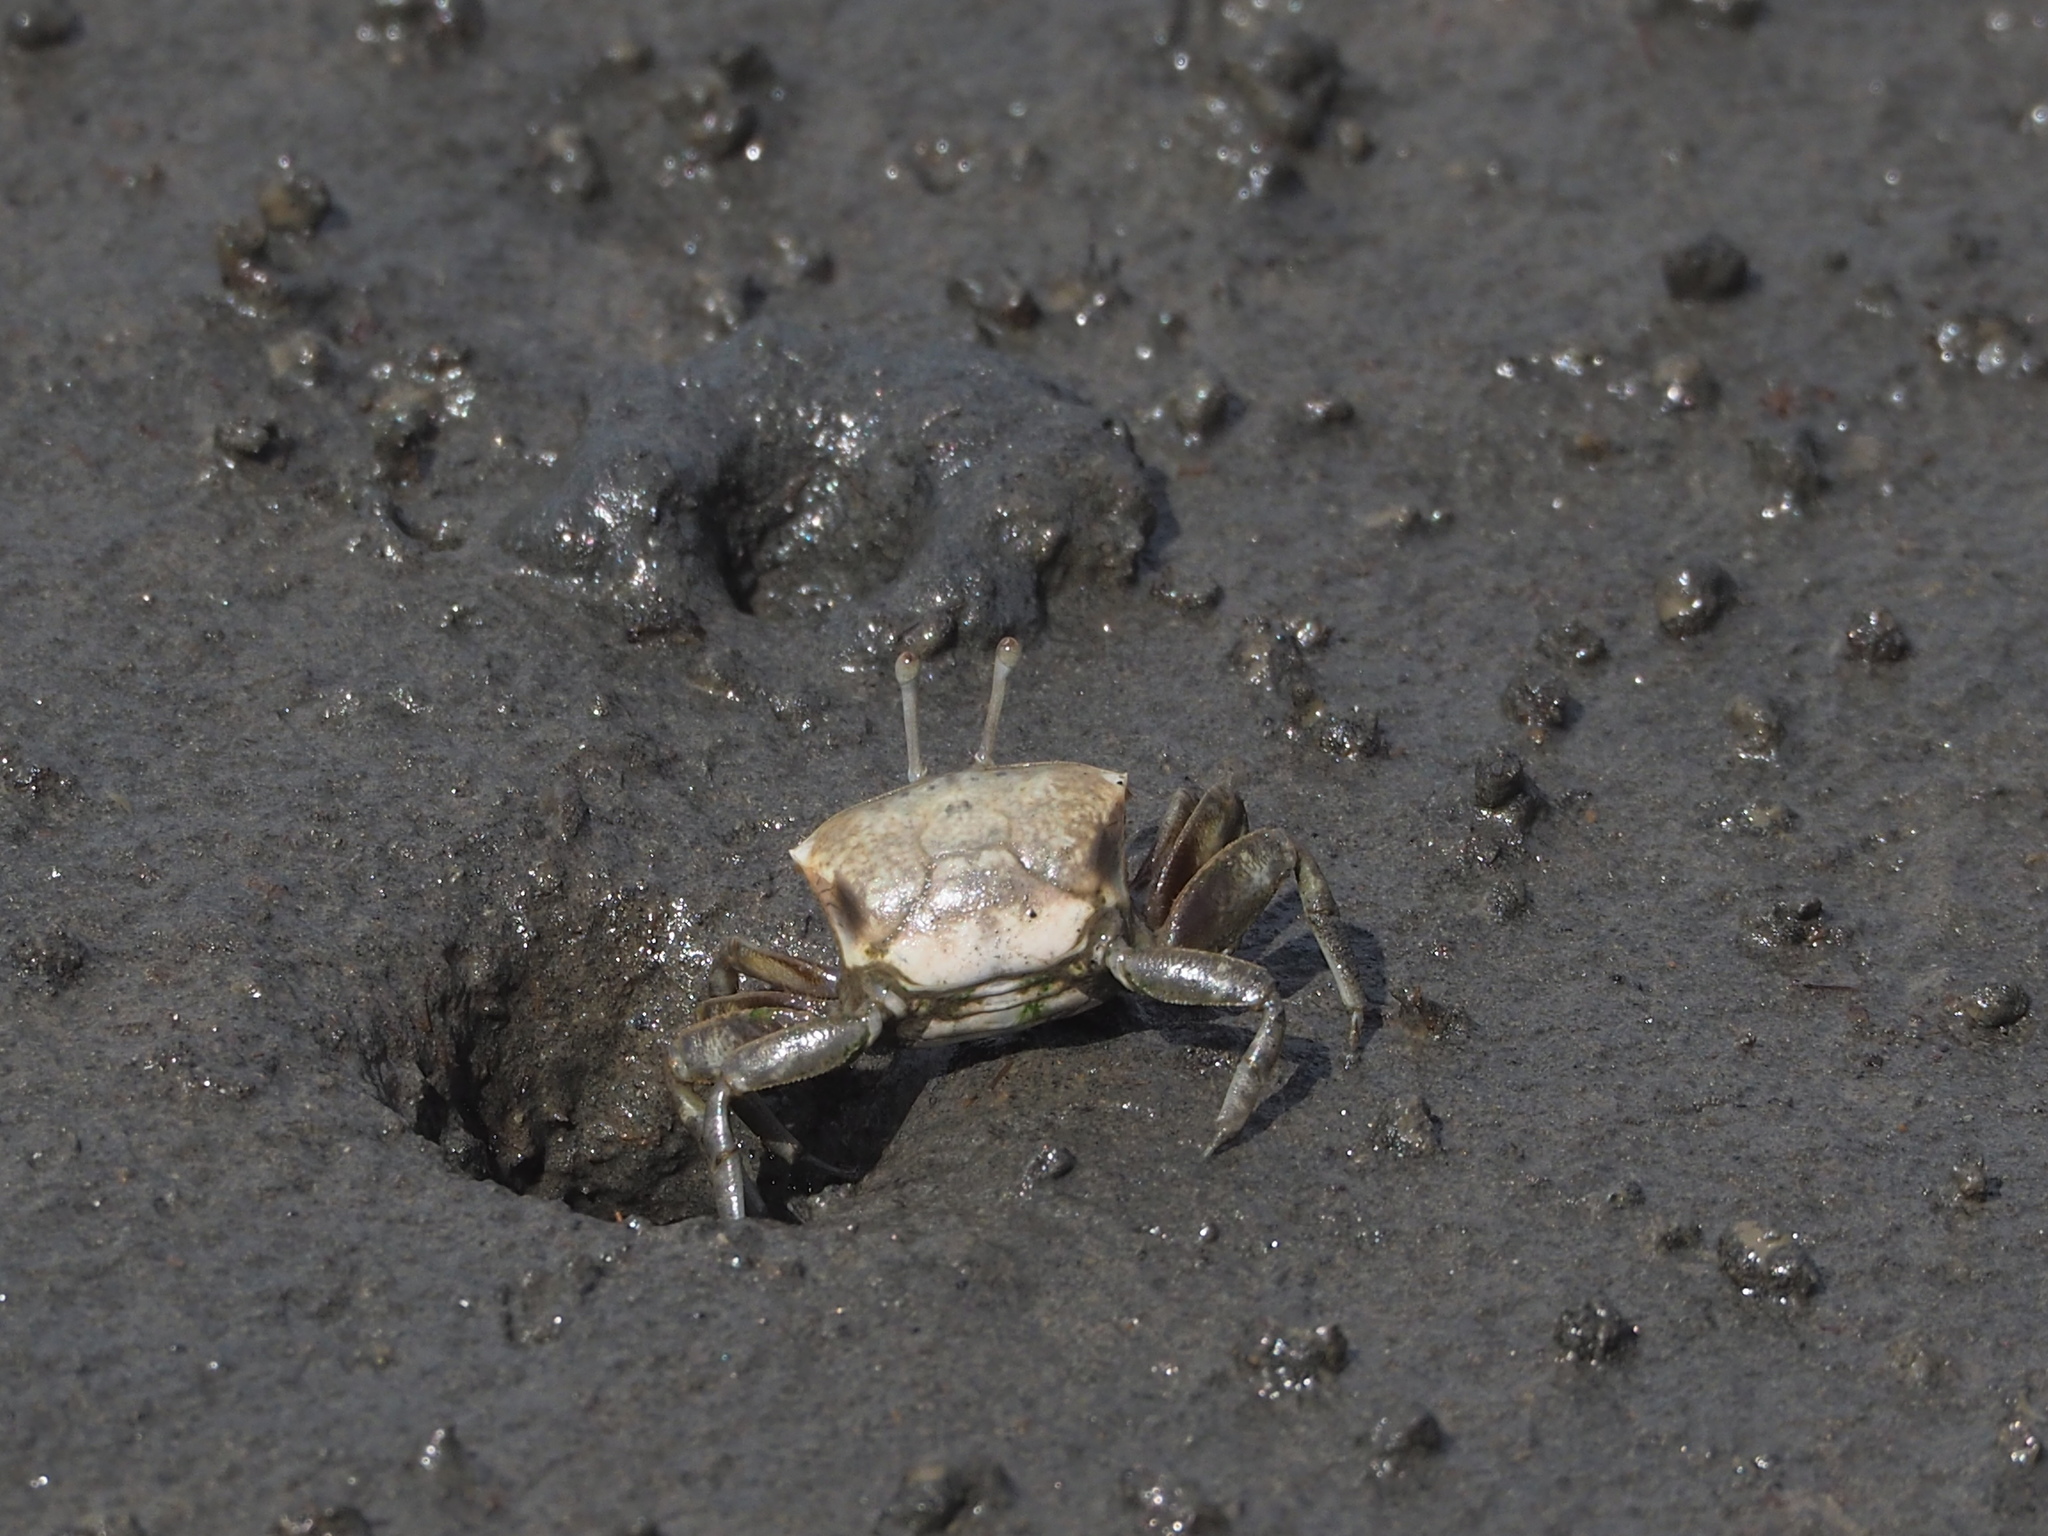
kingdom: Animalia
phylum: Arthropoda
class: Malacostraca
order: Decapoda
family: Ocypodidae
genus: Gelasimus
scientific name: Gelasimus borealis
